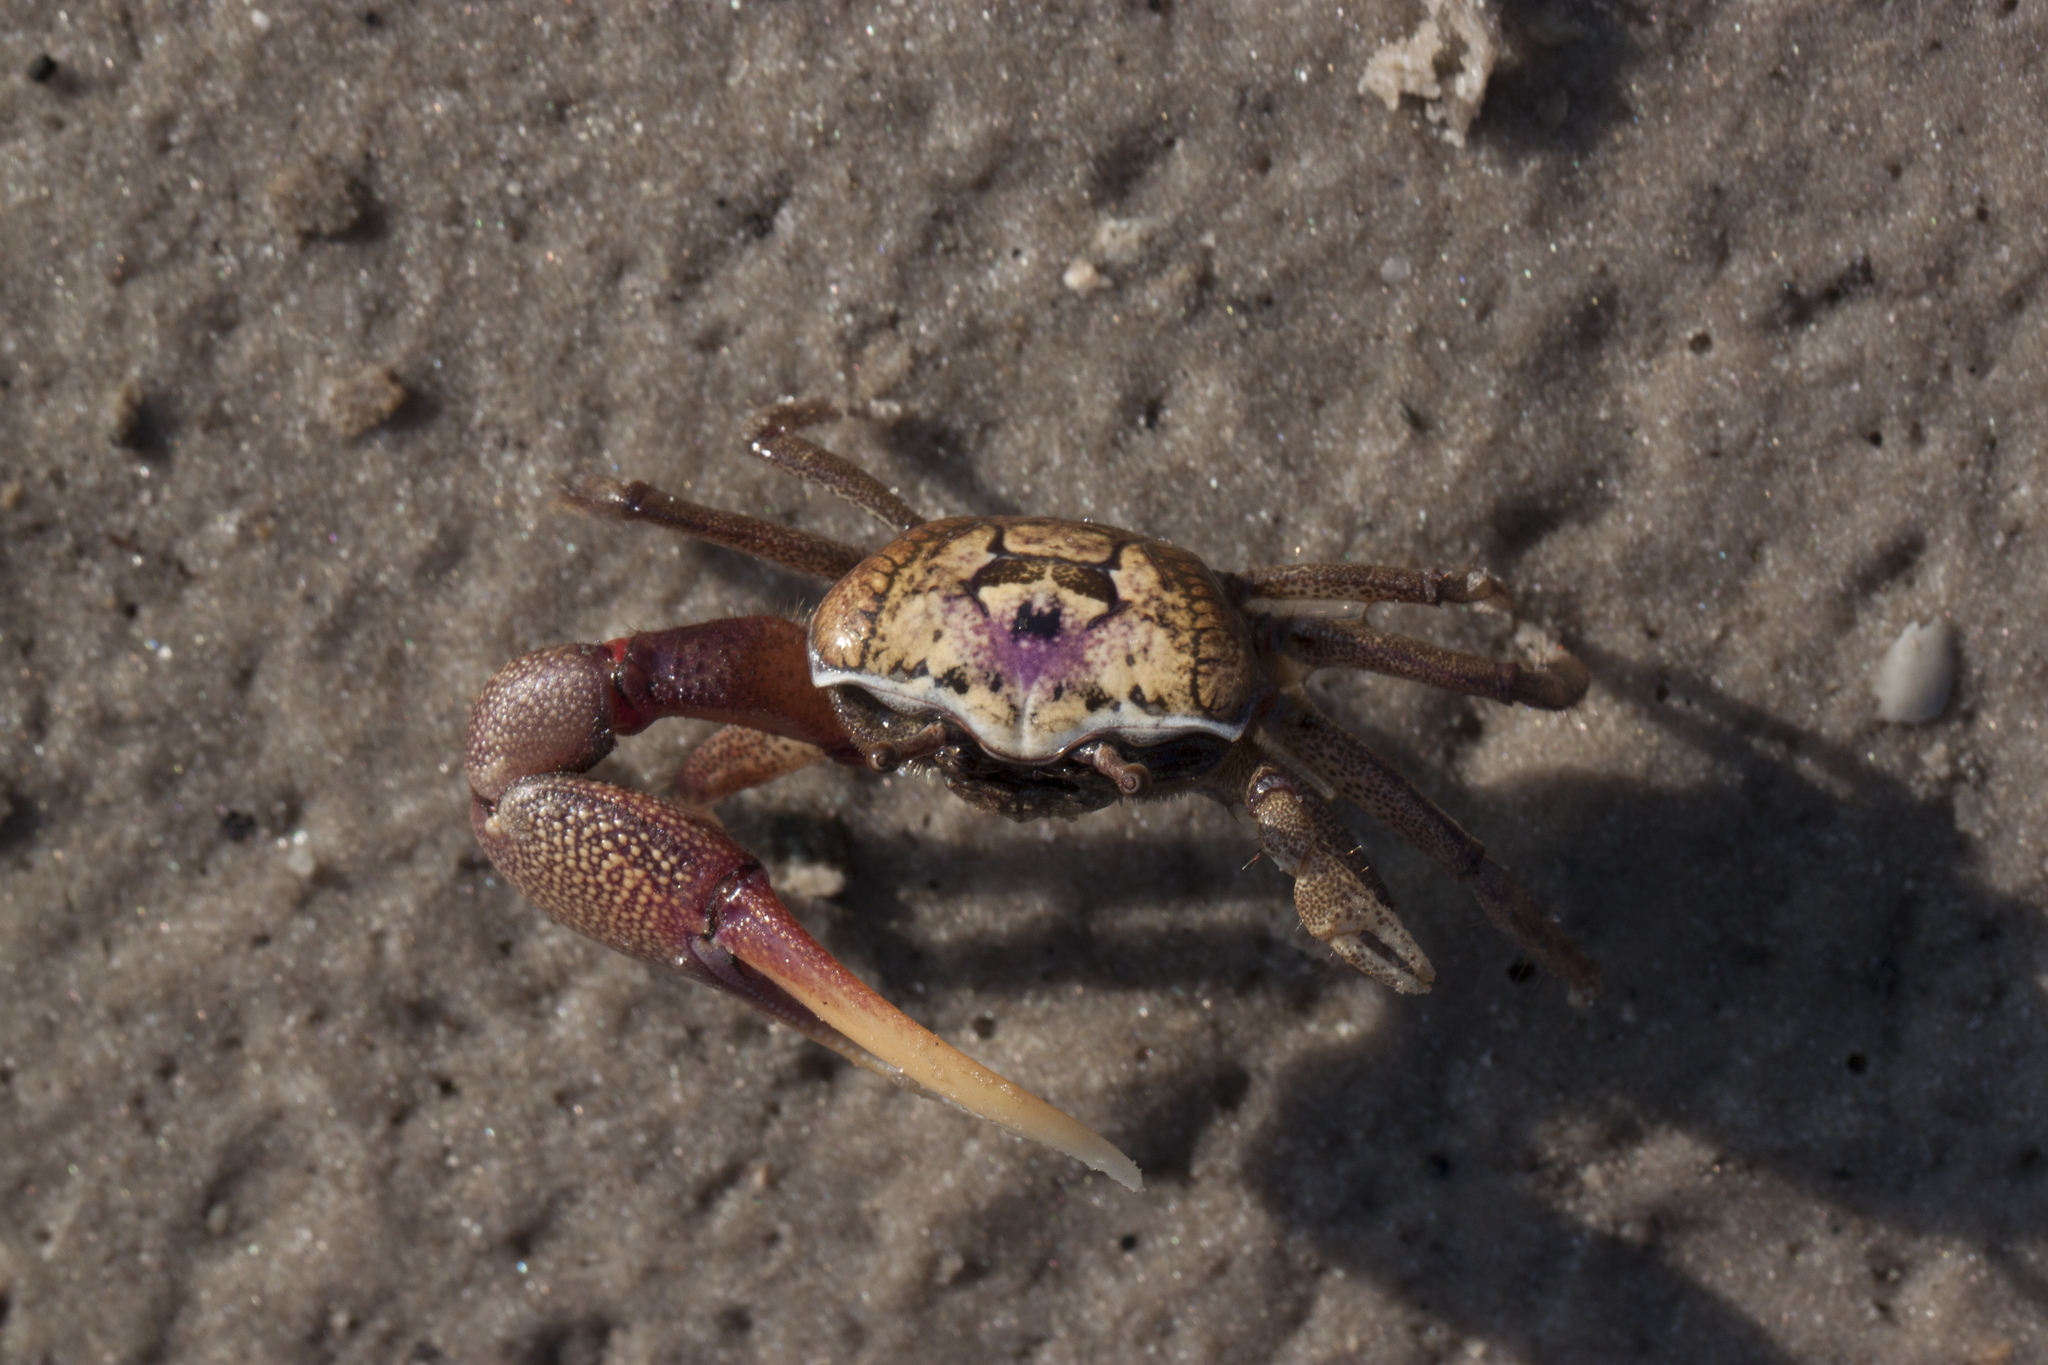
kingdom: Animalia
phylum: Arthropoda
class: Malacostraca
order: Decapoda
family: Ocypodidae
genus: Leptuca
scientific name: Leptuca pugilator
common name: Atlantic sand fiddler crab
